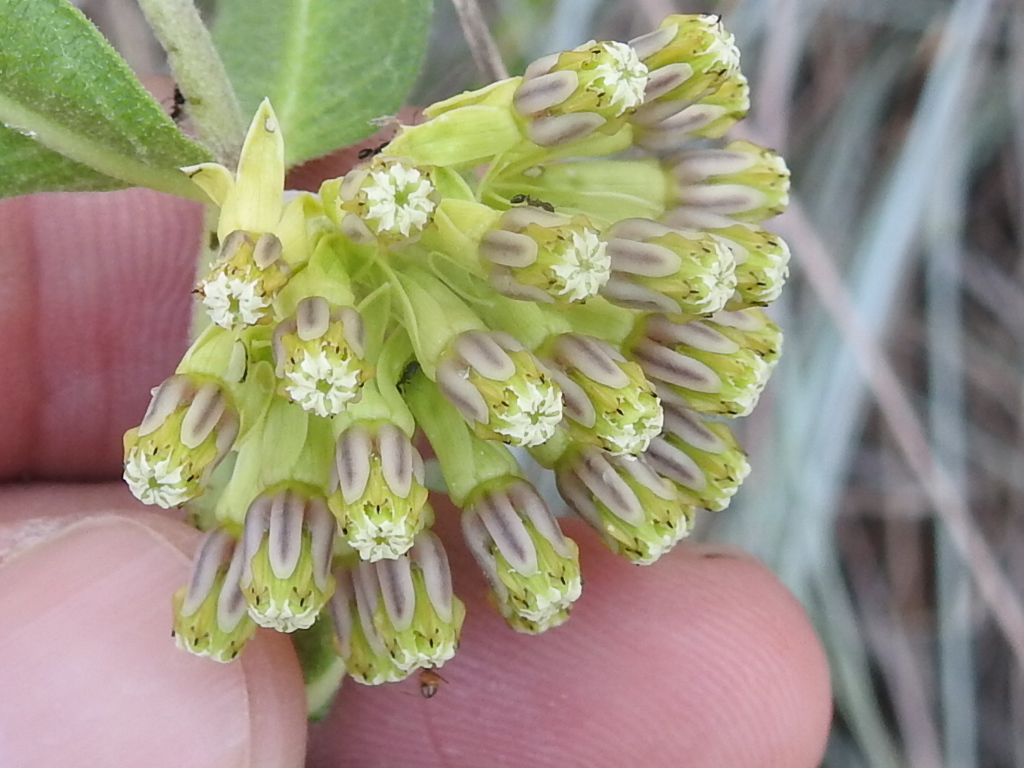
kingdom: Plantae
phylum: Tracheophyta
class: Magnoliopsida
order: Gentianales
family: Apocynaceae
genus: Asclepias
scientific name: Asclepias viridiflora
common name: Green comet milkweed
